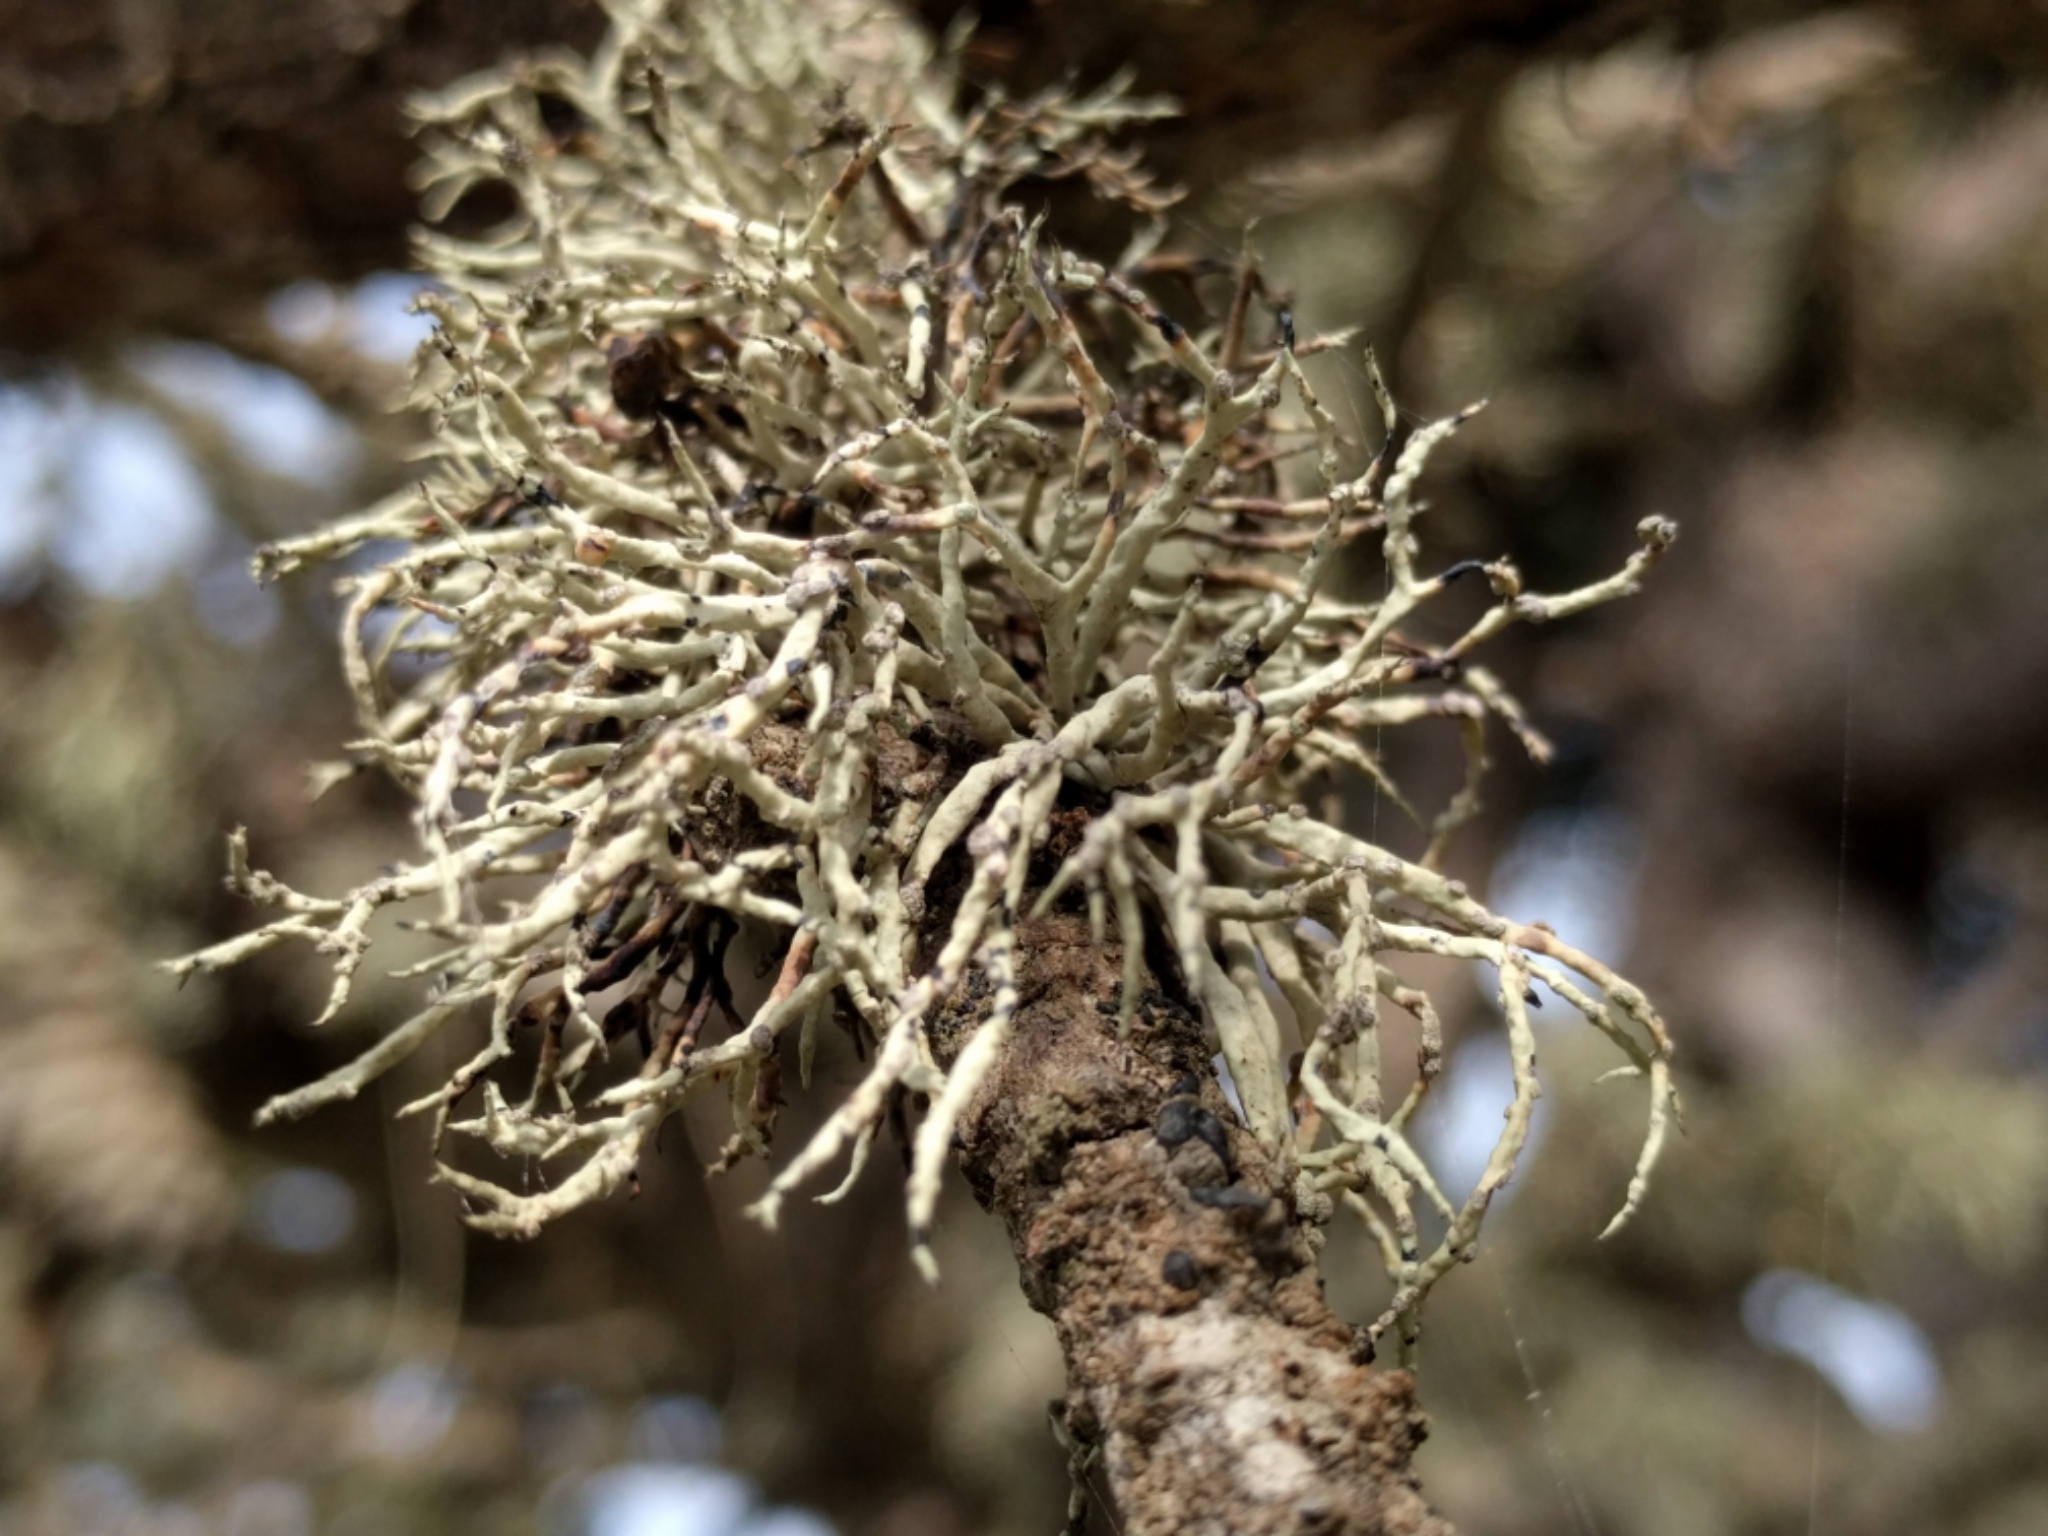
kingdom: Fungi
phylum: Ascomycota
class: Lecanoromycetes
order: Lecanorales
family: Ramalinaceae
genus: Niebla
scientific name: Niebla cephalota
